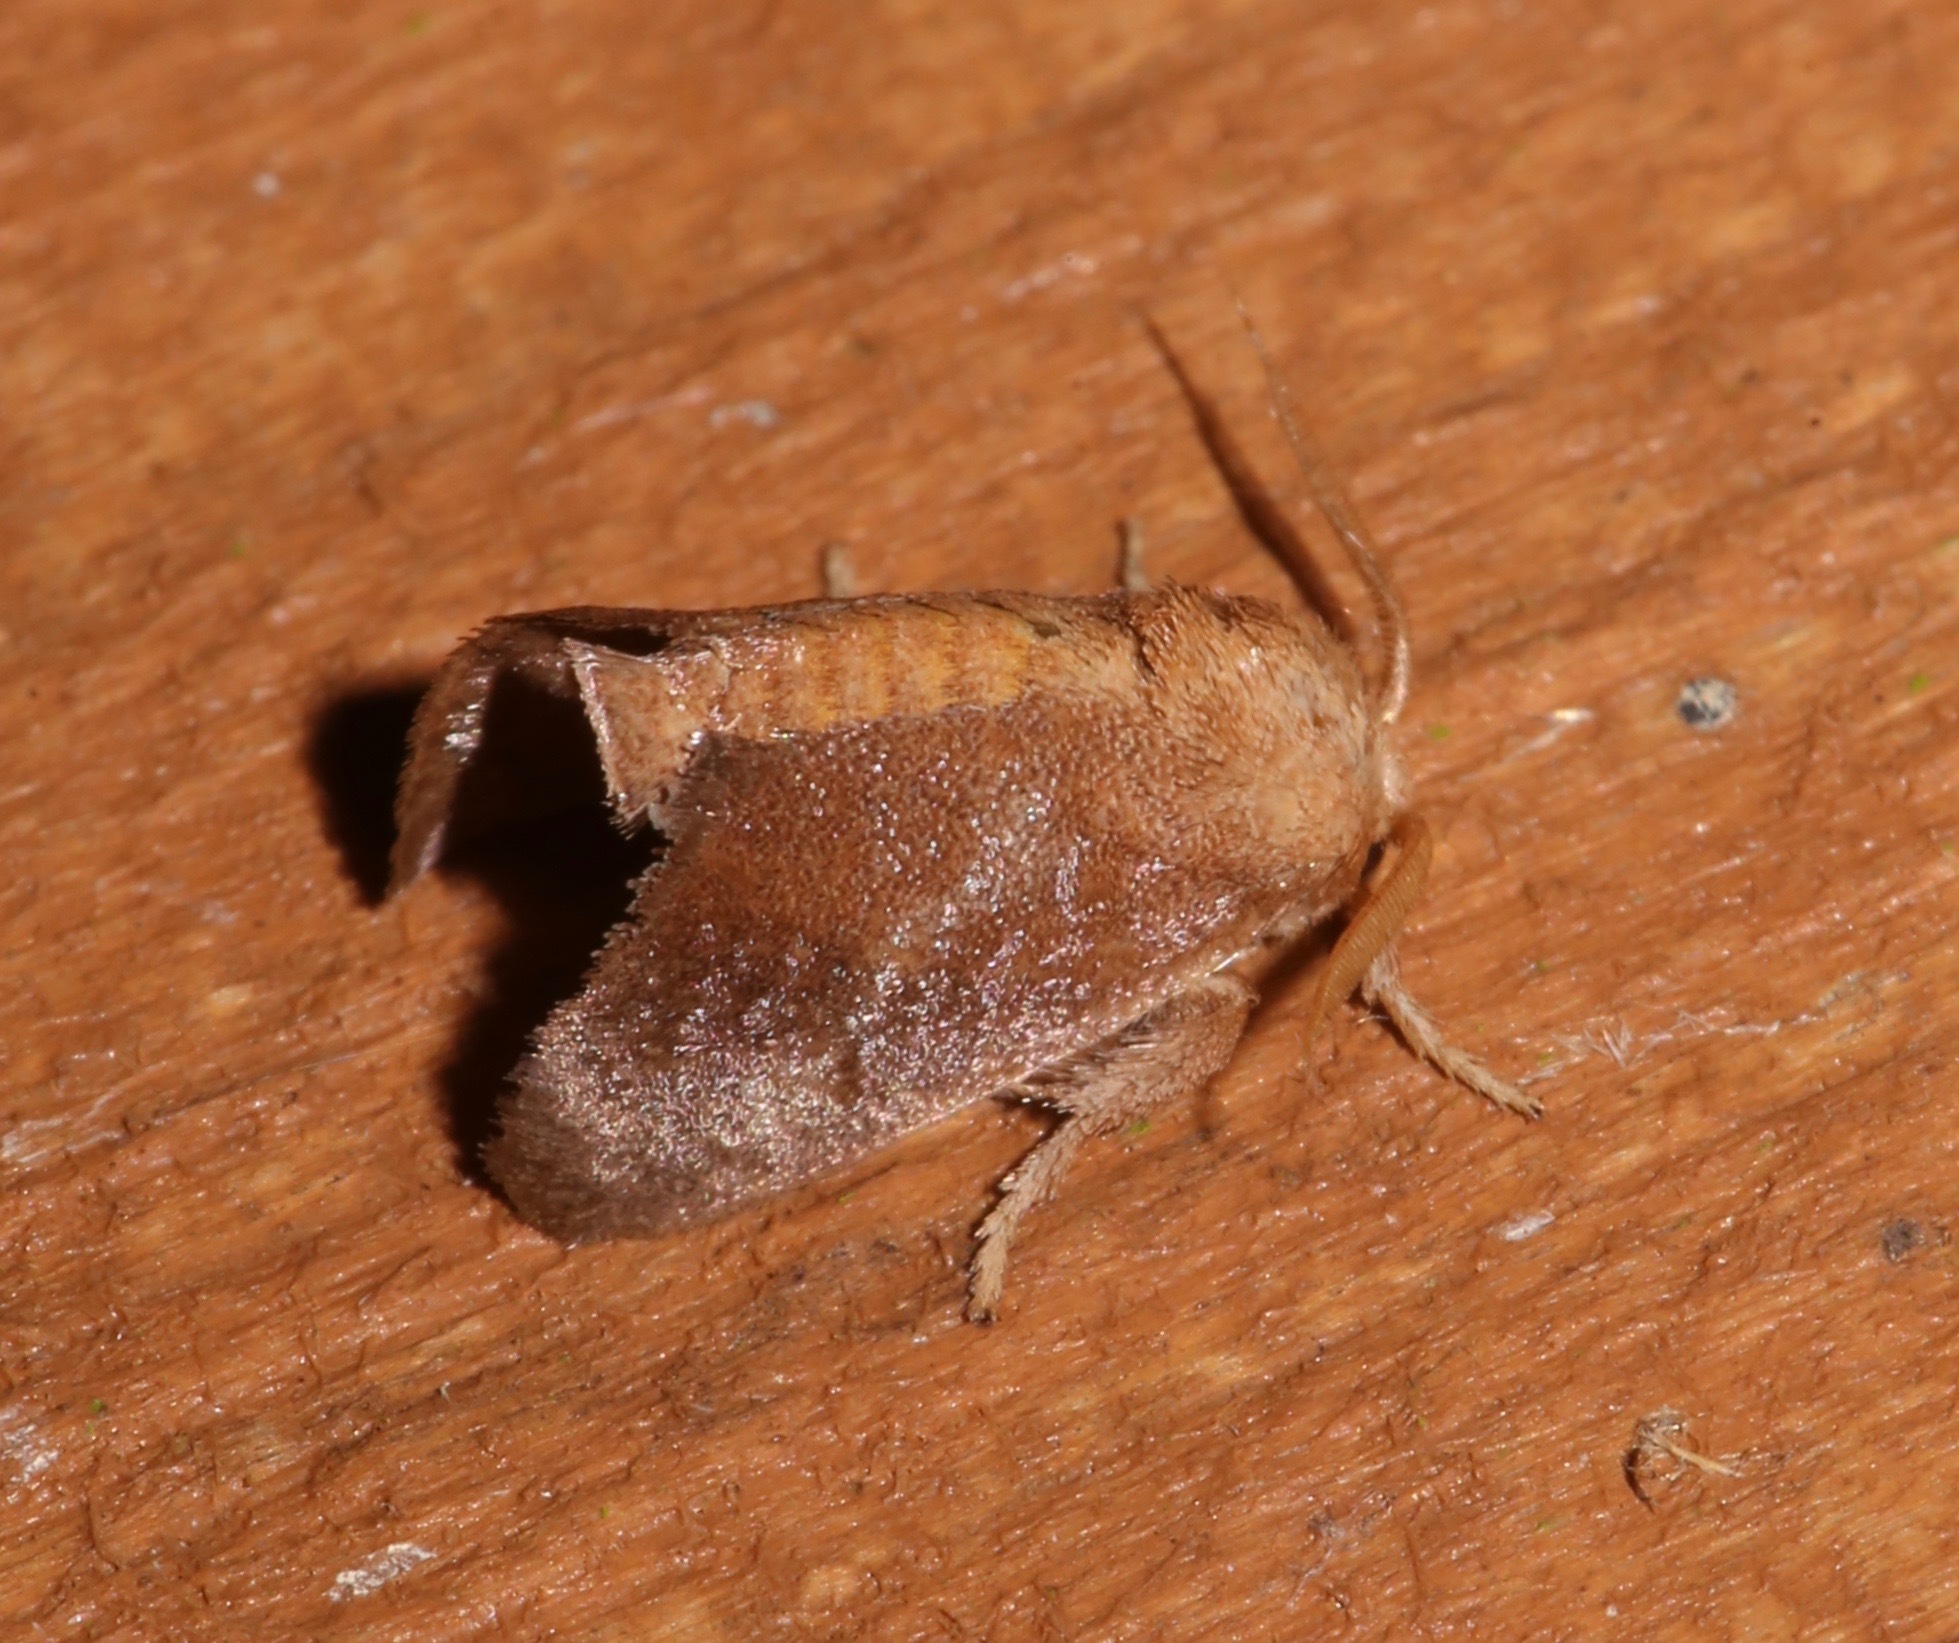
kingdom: Animalia
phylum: Arthropoda
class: Insecta
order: Lepidoptera
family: Limacodidae
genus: Isa
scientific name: Isa textula
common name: Crowned slug moth
